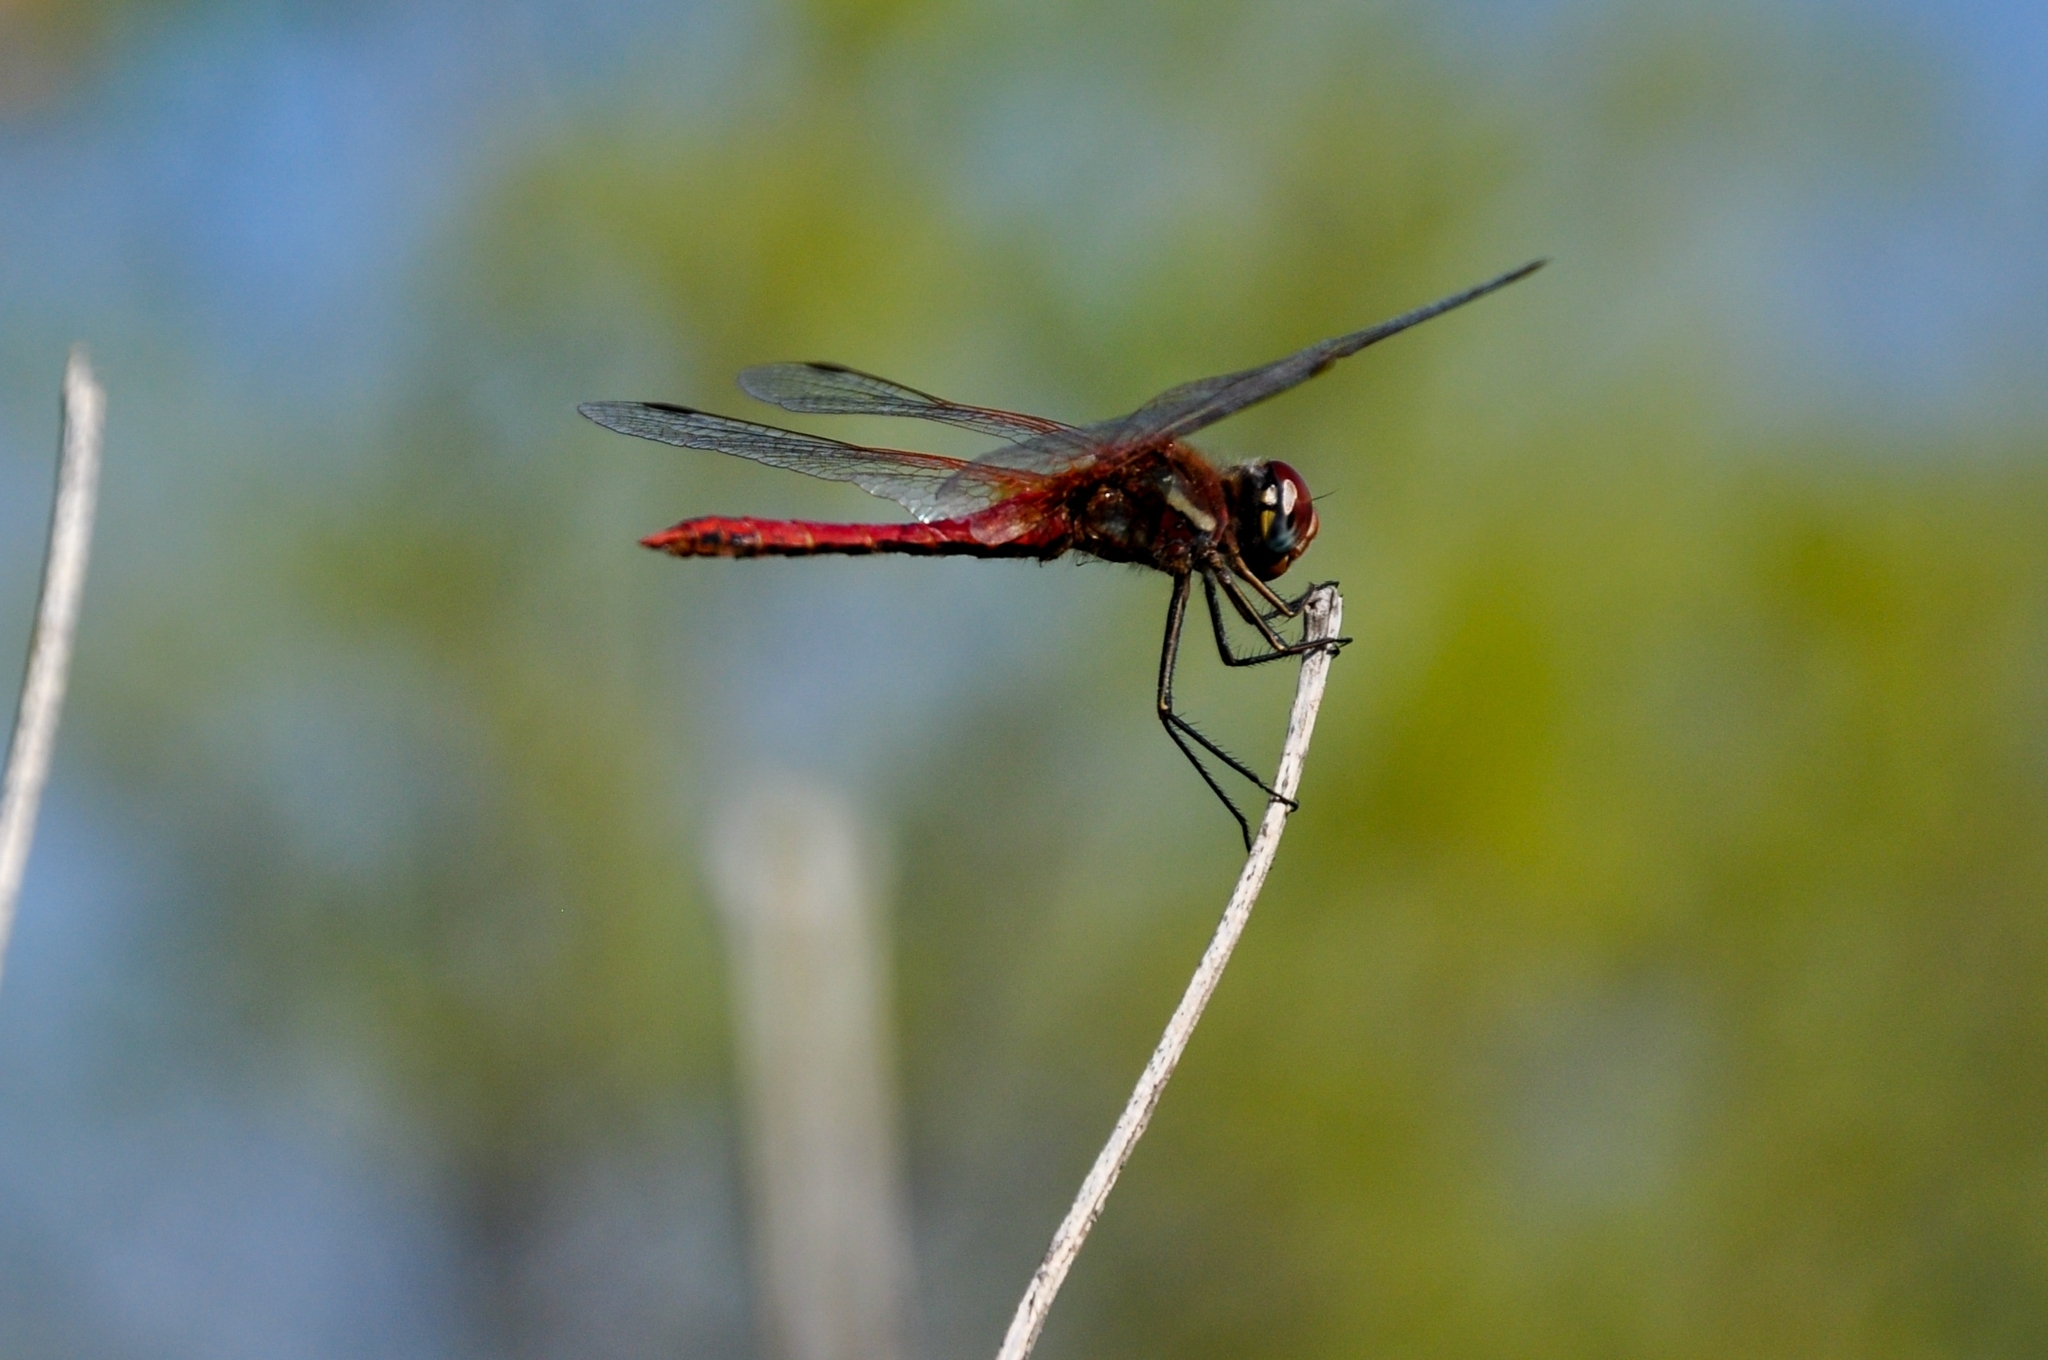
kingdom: Animalia
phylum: Arthropoda
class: Insecta
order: Odonata
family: Libellulidae
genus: Sympetrum
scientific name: Sympetrum fonscolombii
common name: Red-veined darter
